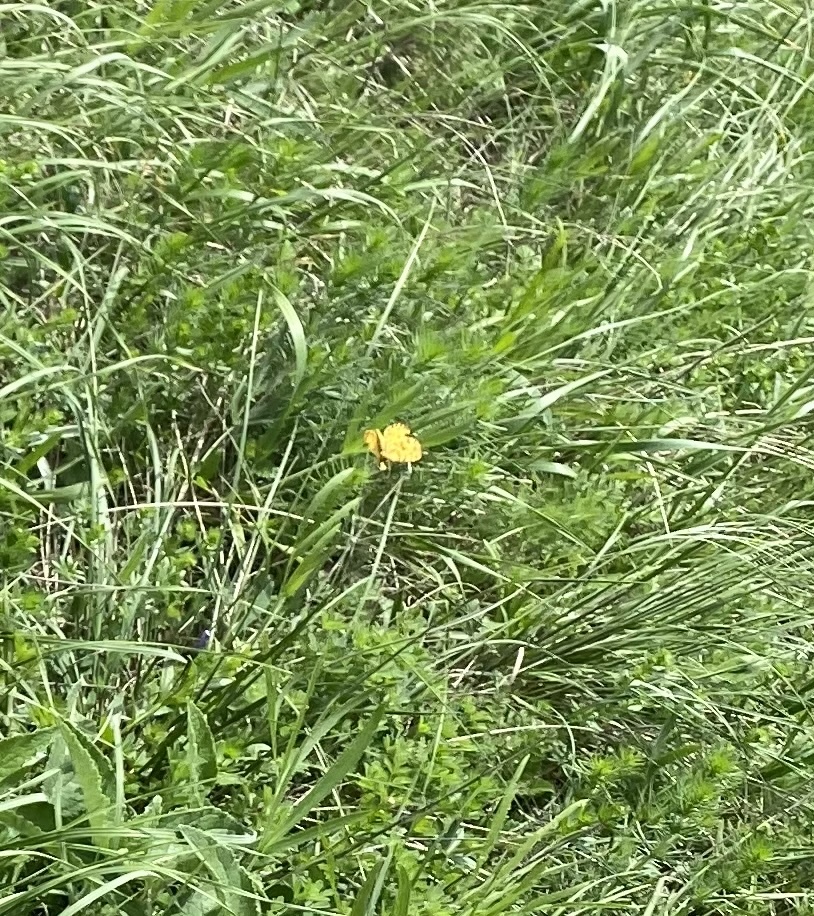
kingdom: Animalia
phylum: Arthropoda
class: Insecta
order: Lepidoptera
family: Geometridae
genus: Pseudopanthera
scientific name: Pseudopanthera macularia
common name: Speckled yellow
